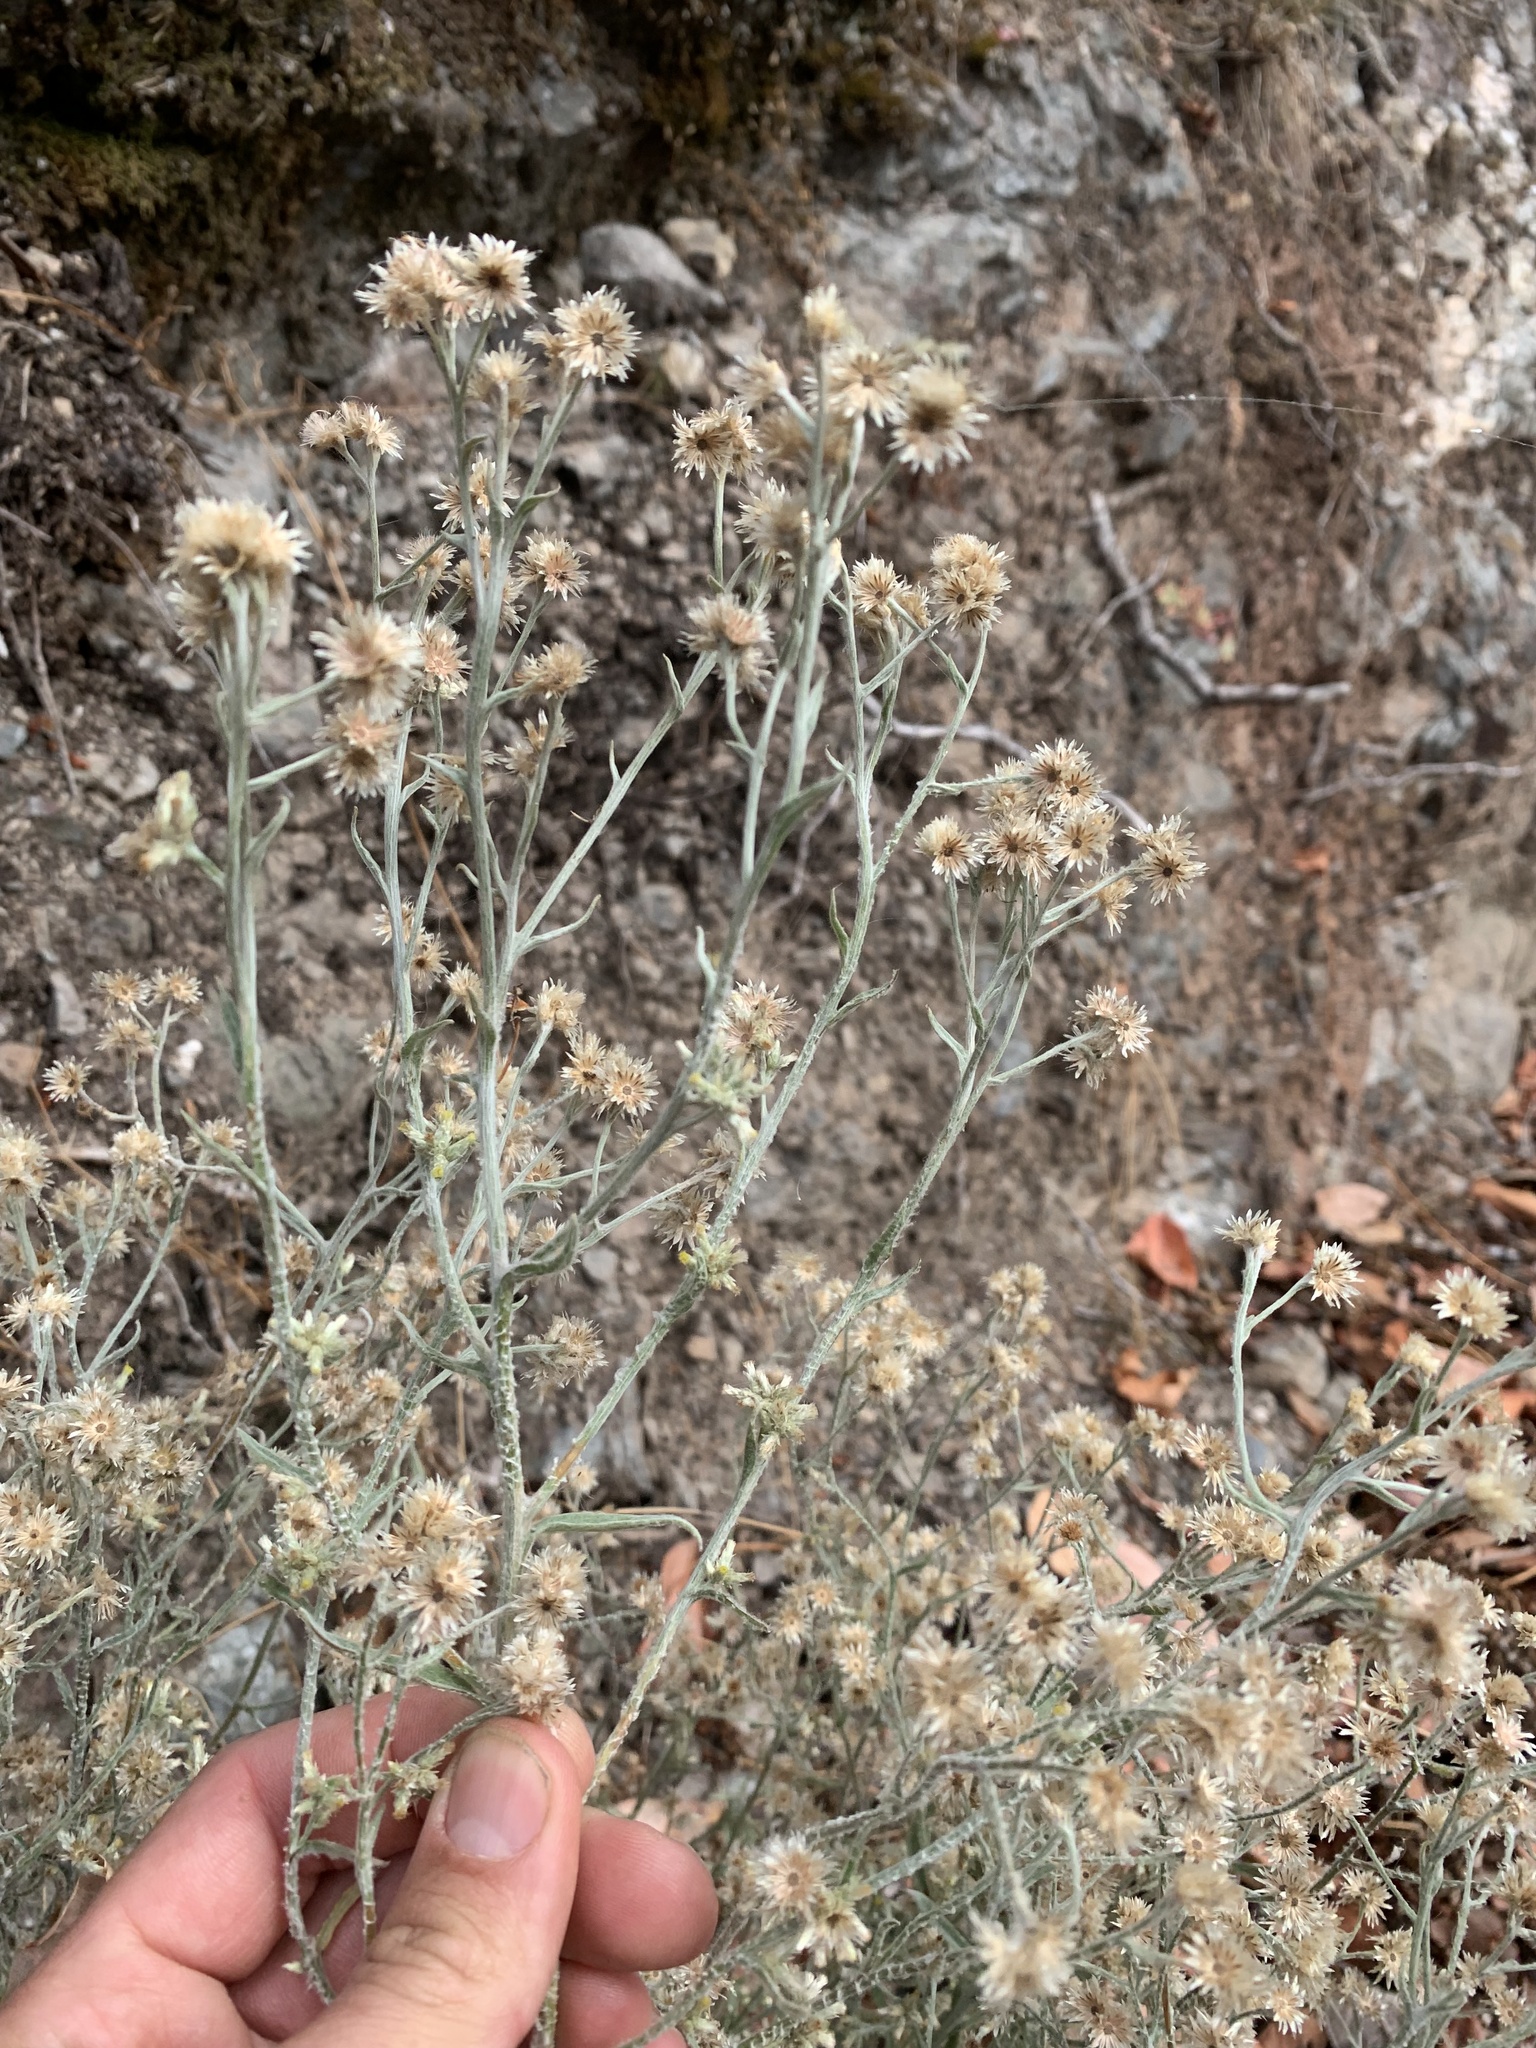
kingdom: Plantae
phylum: Tracheophyta
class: Magnoliopsida
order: Asterales
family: Asteraceae
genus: Pseudognaphalium
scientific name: Pseudognaphalium thermale
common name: Northwestern rabbit-tobacco
